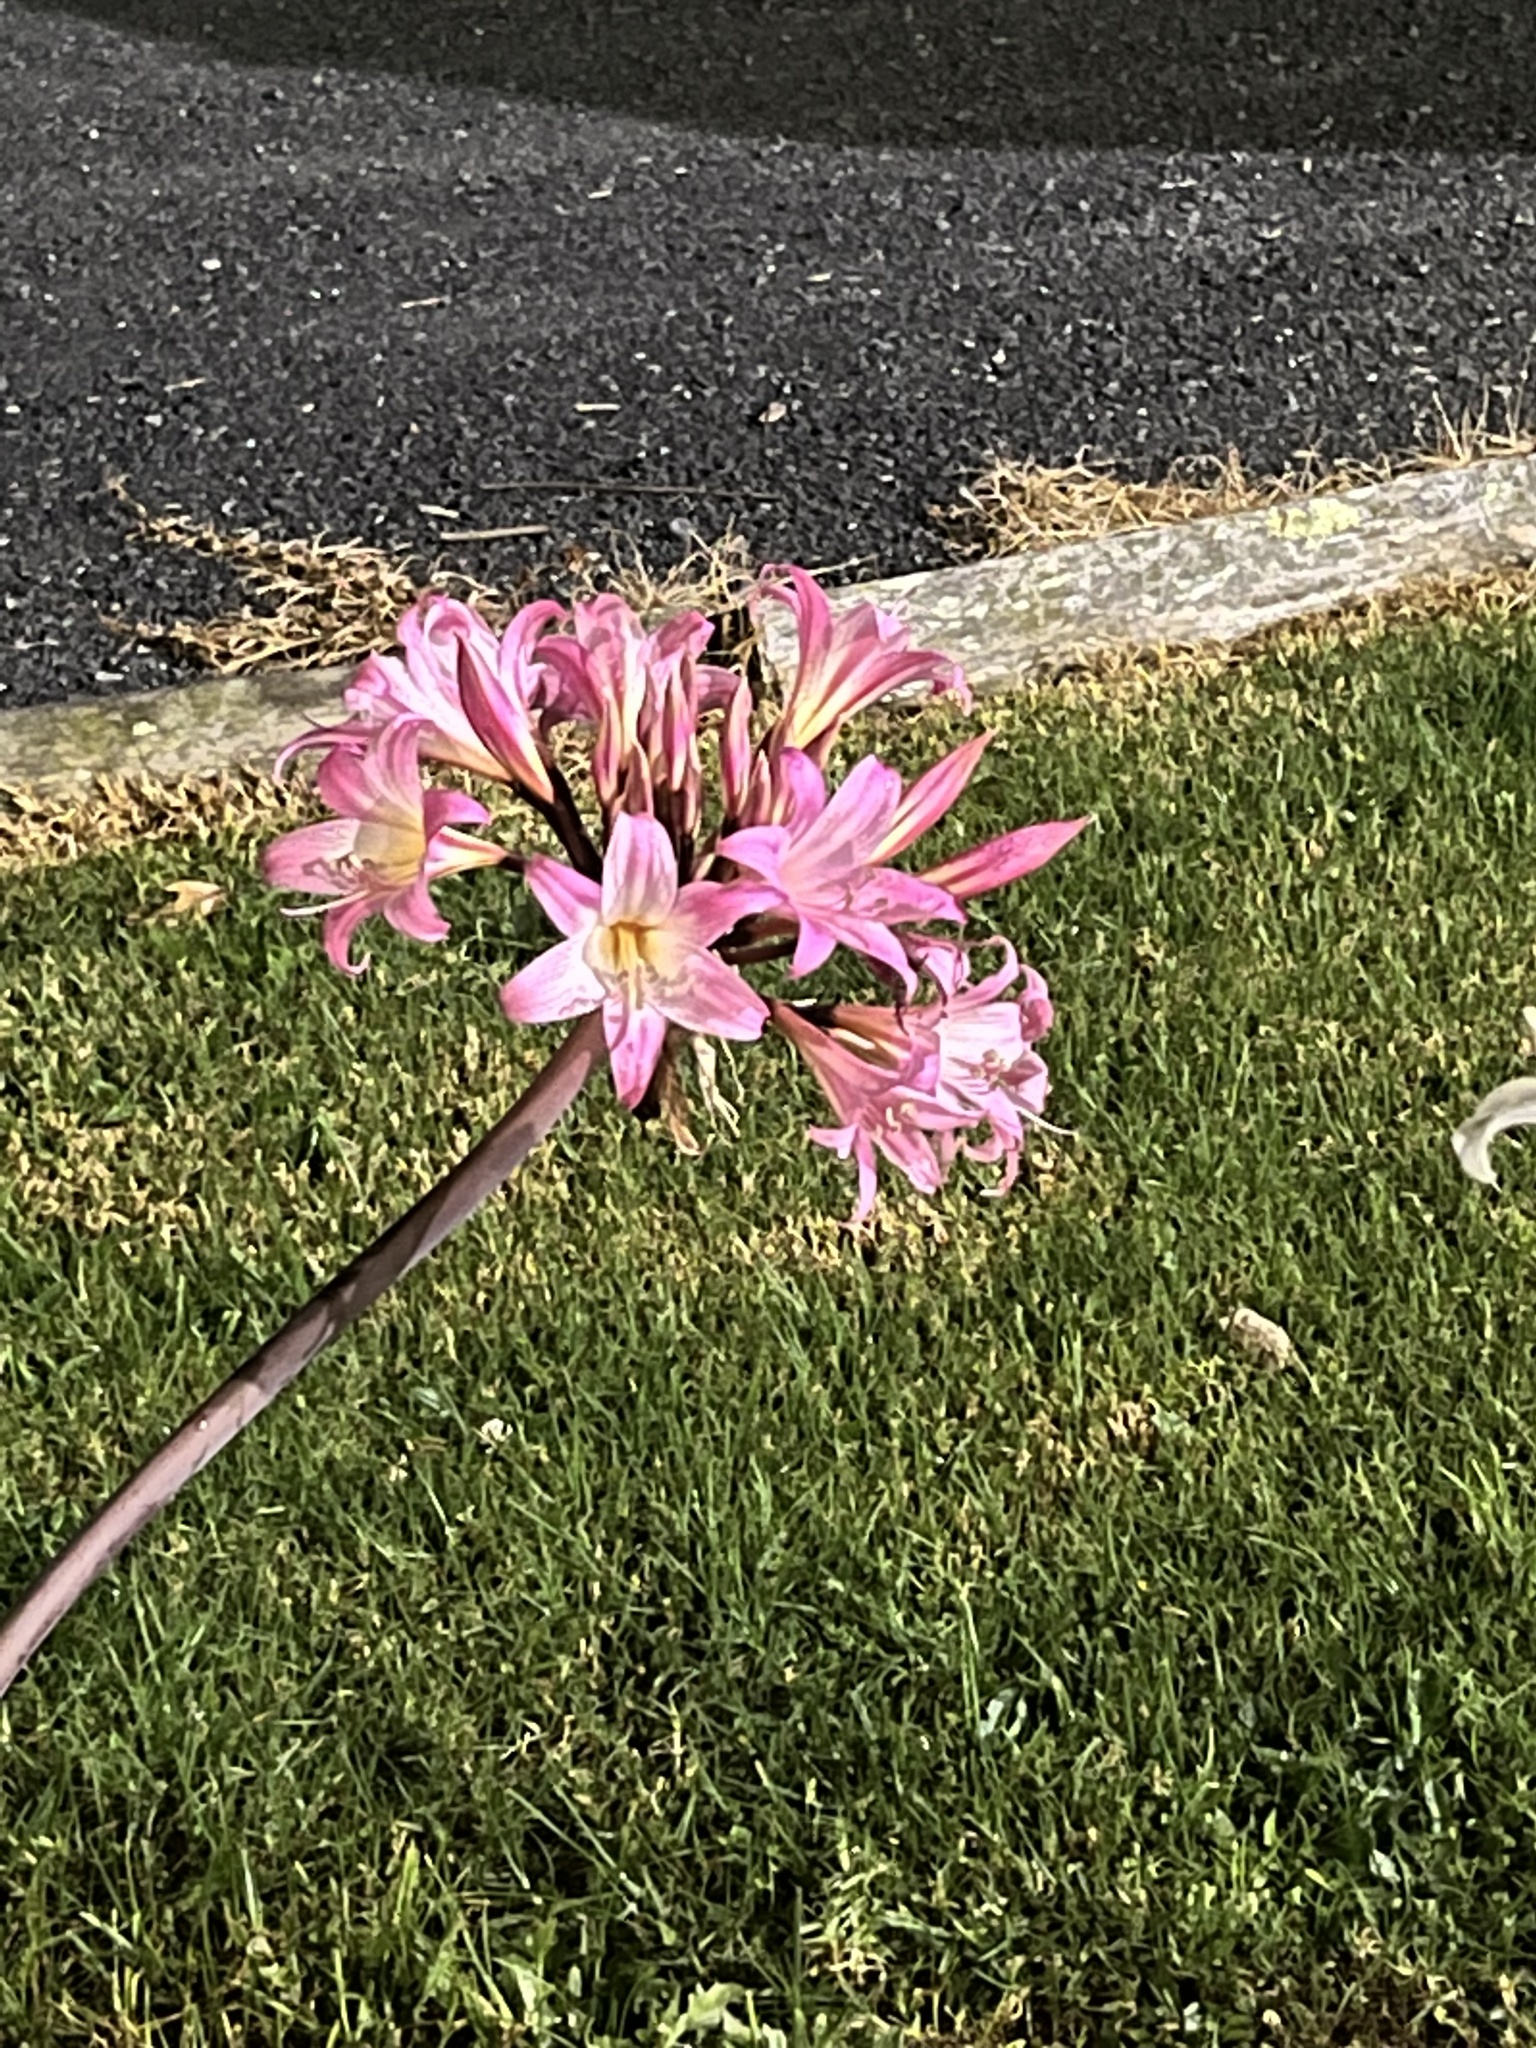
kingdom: Plantae
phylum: Tracheophyta
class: Liliopsida
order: Asparagales
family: Amaryllidaceae
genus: Amaryllis
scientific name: Amaryllis belladonna
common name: Jersey lily
